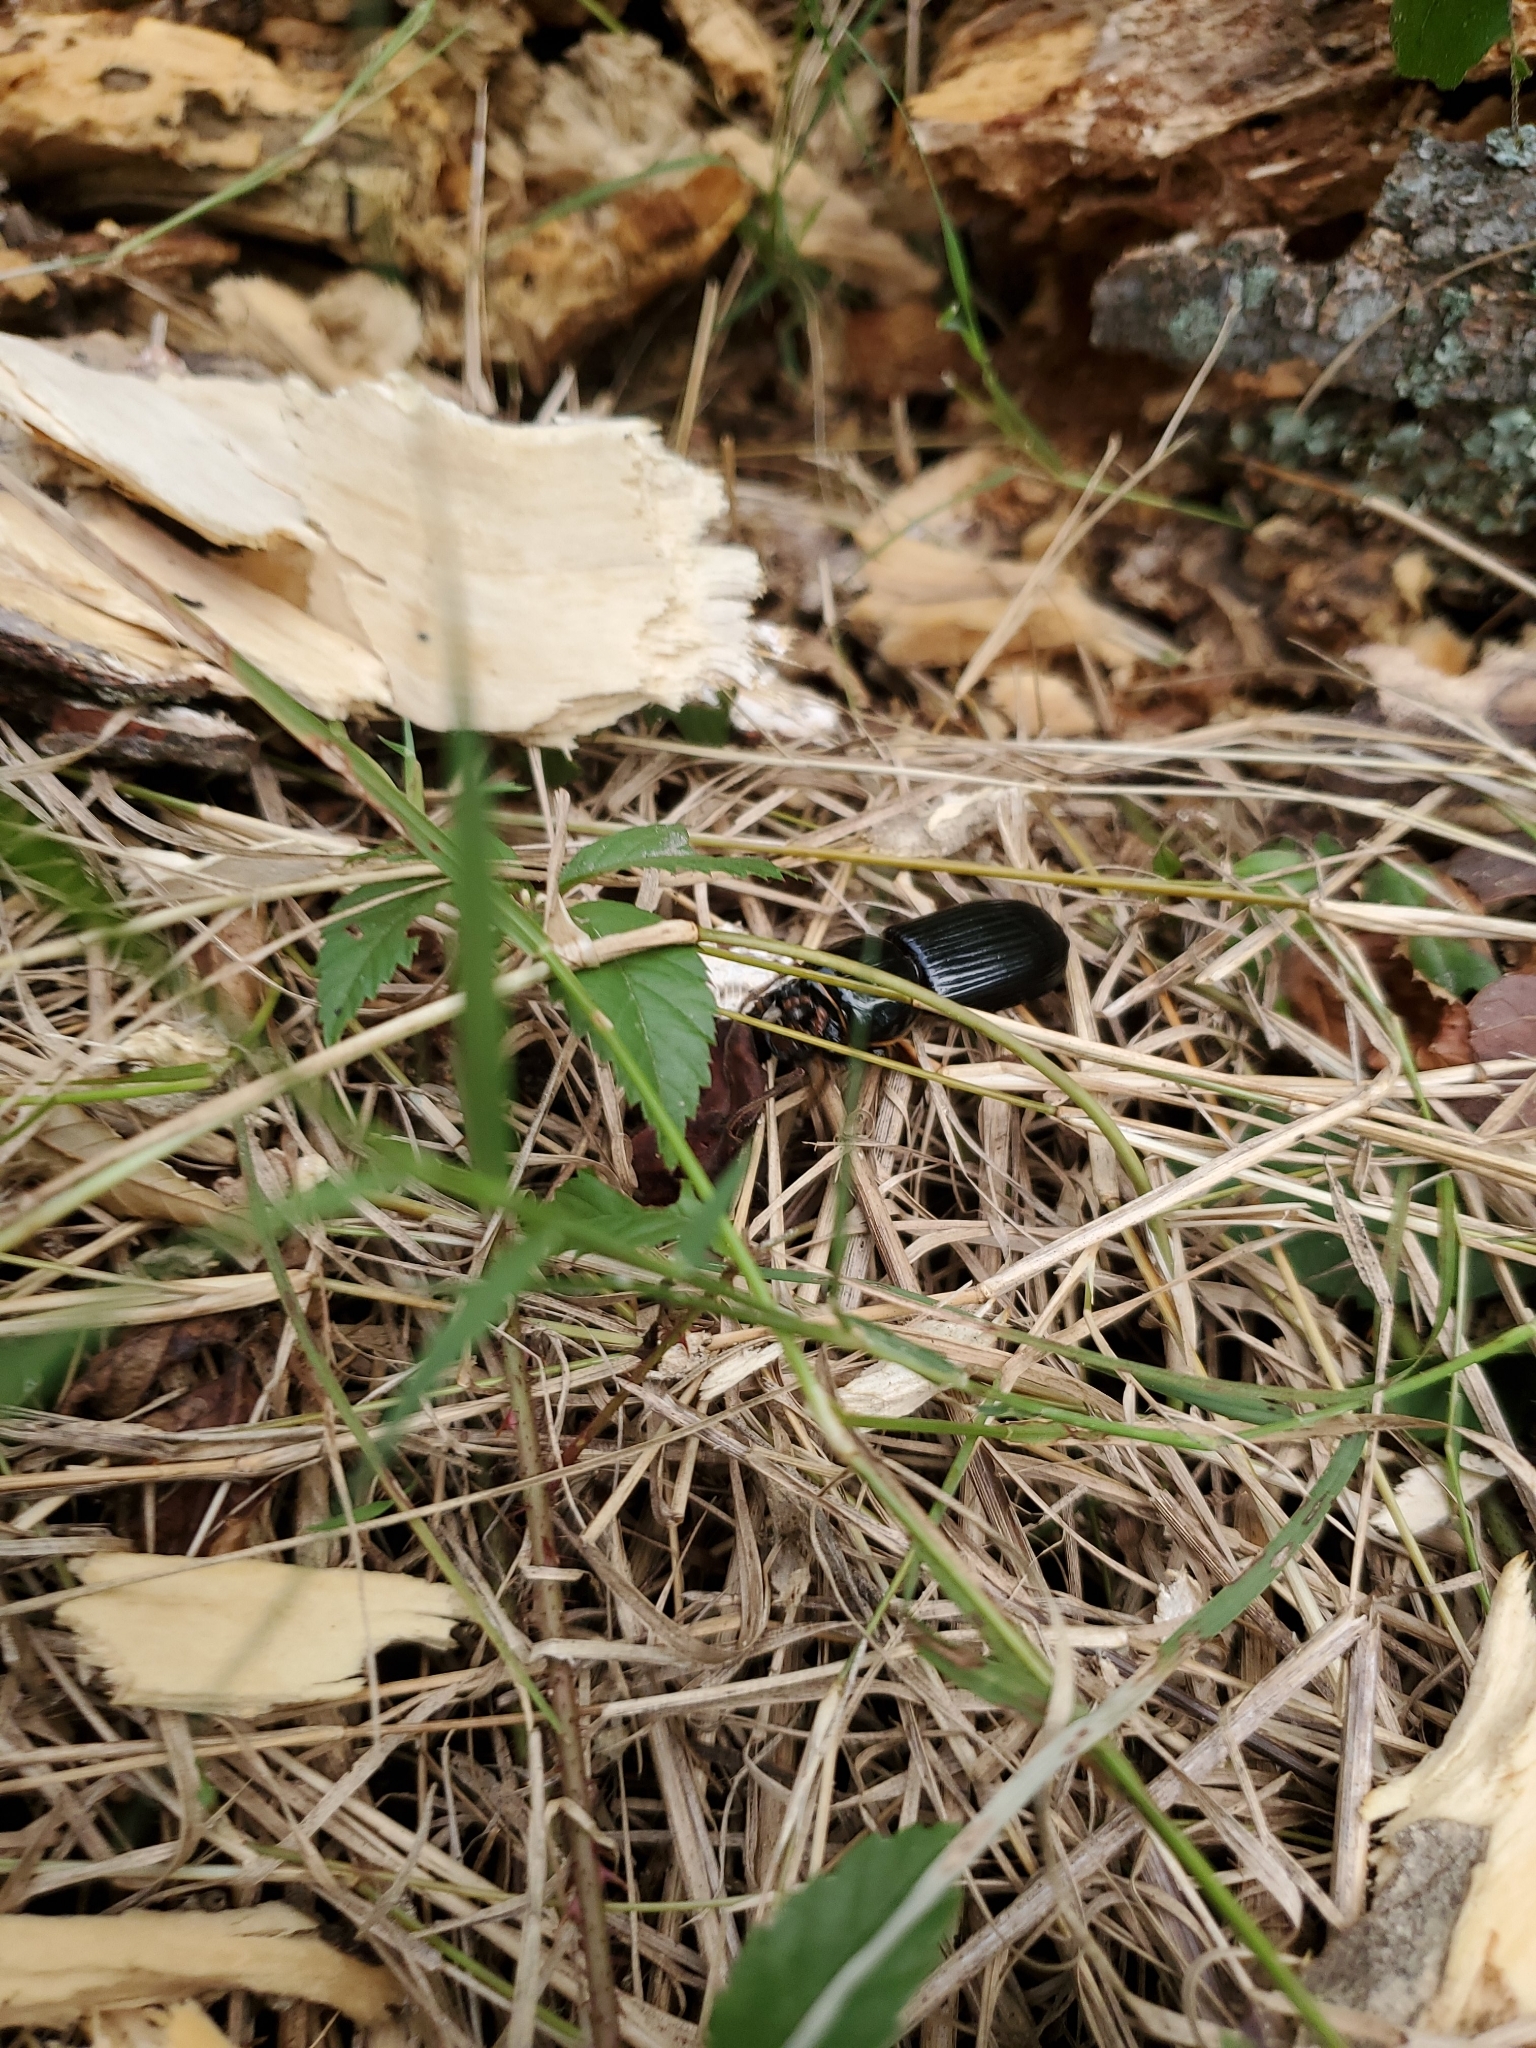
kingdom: Animalia
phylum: Arthropoda
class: Insecta
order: Coleoptera
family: Passalidae
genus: Odontotaenius
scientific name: Odontotaenius disjunctus
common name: Patent leather beetle
